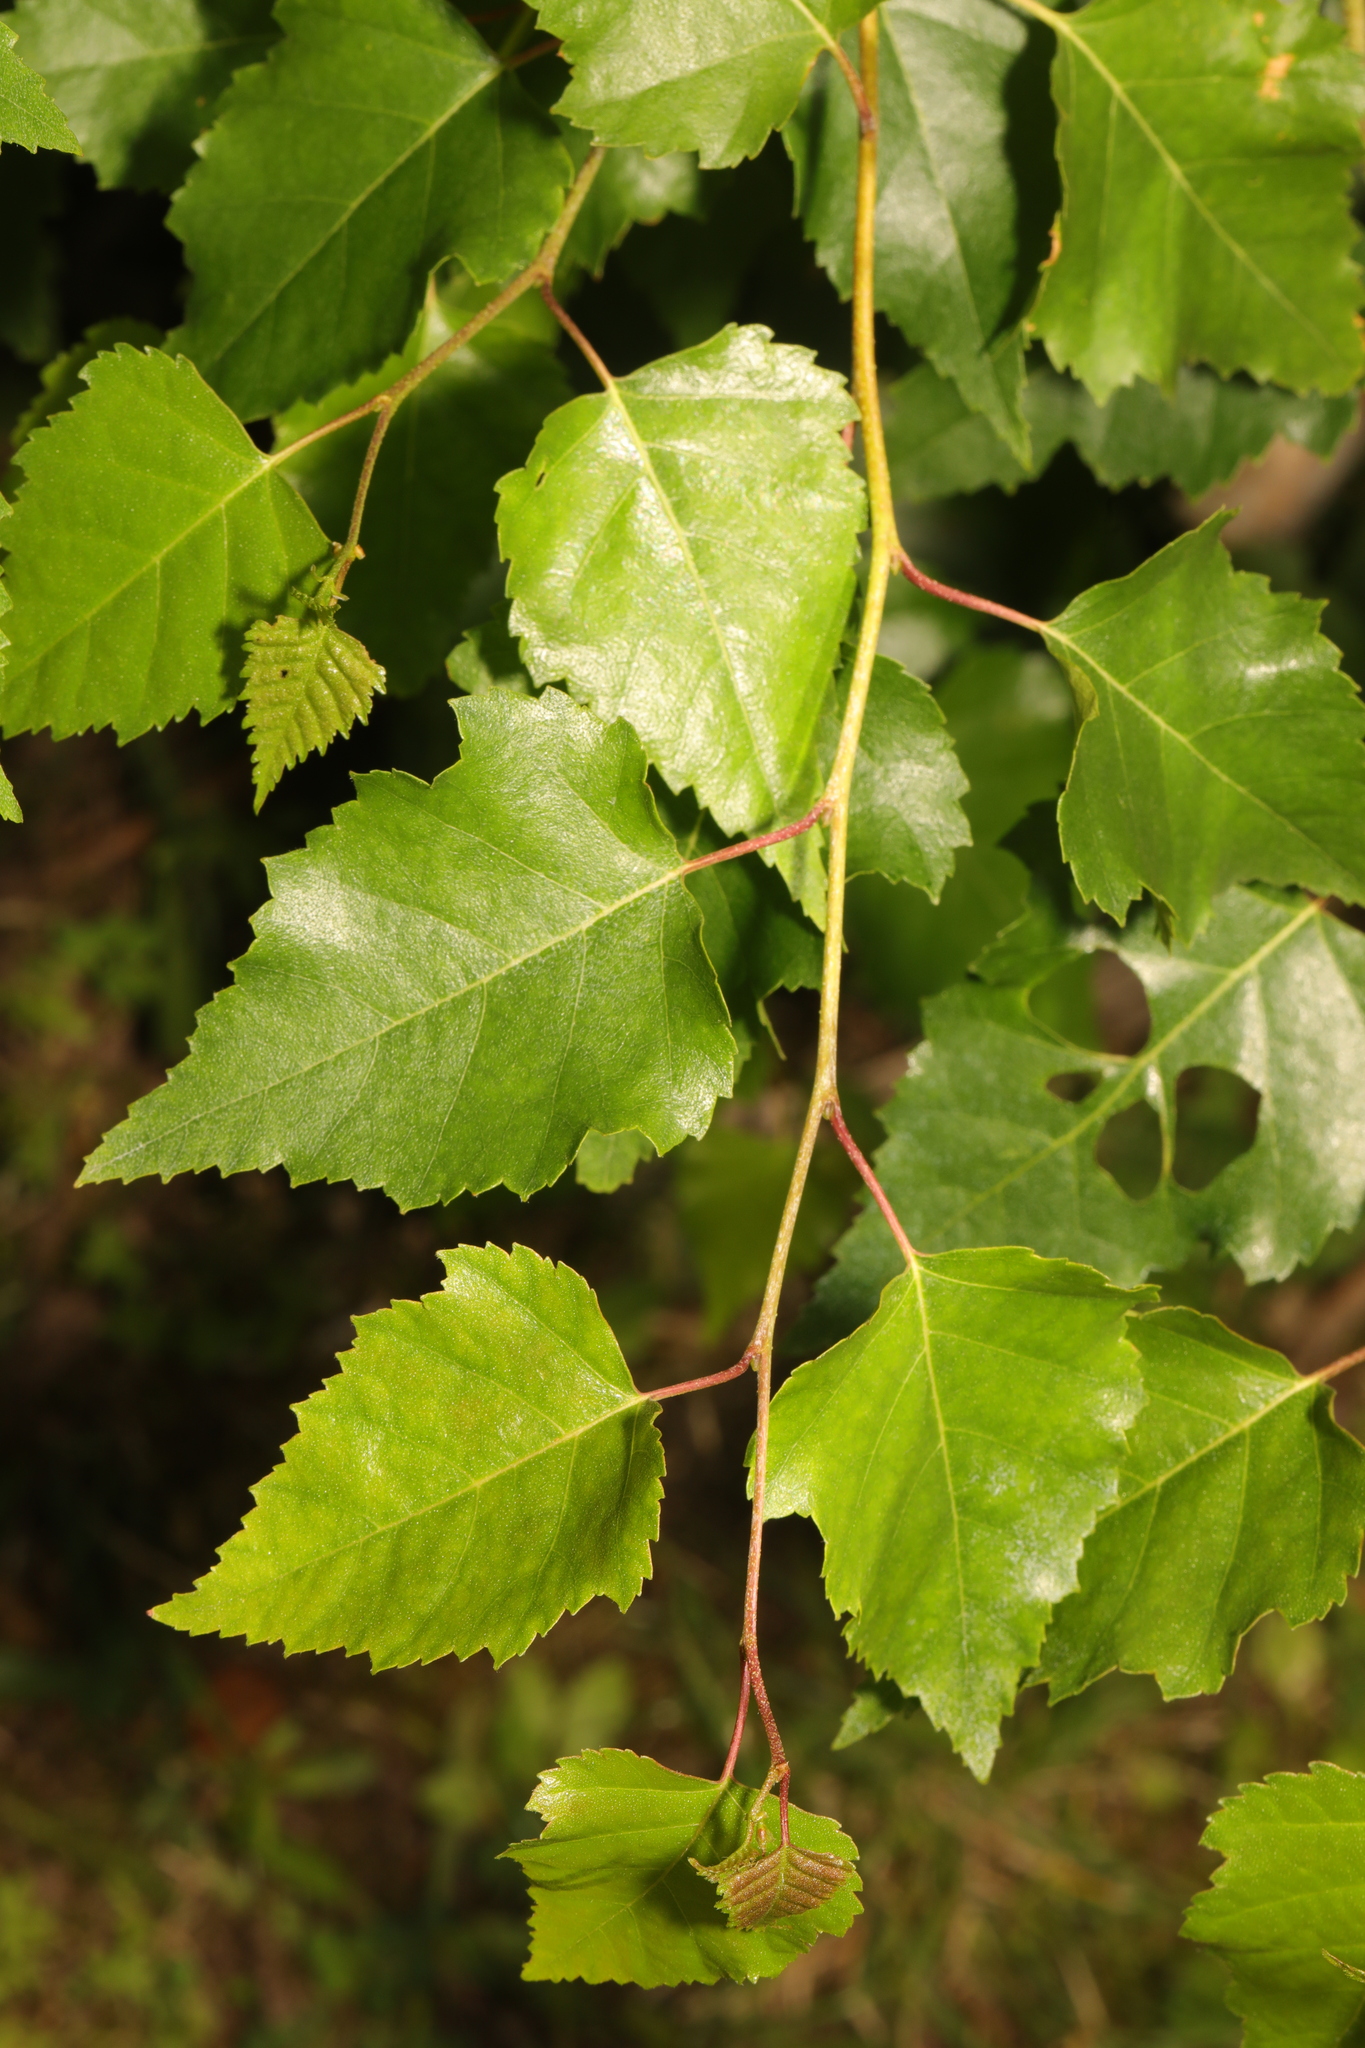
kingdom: Plantae
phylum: Tracheophyta
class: Magnoliopsida
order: Fagales
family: Betulaceae
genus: Betula
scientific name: Betula pendula
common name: Silver birch
